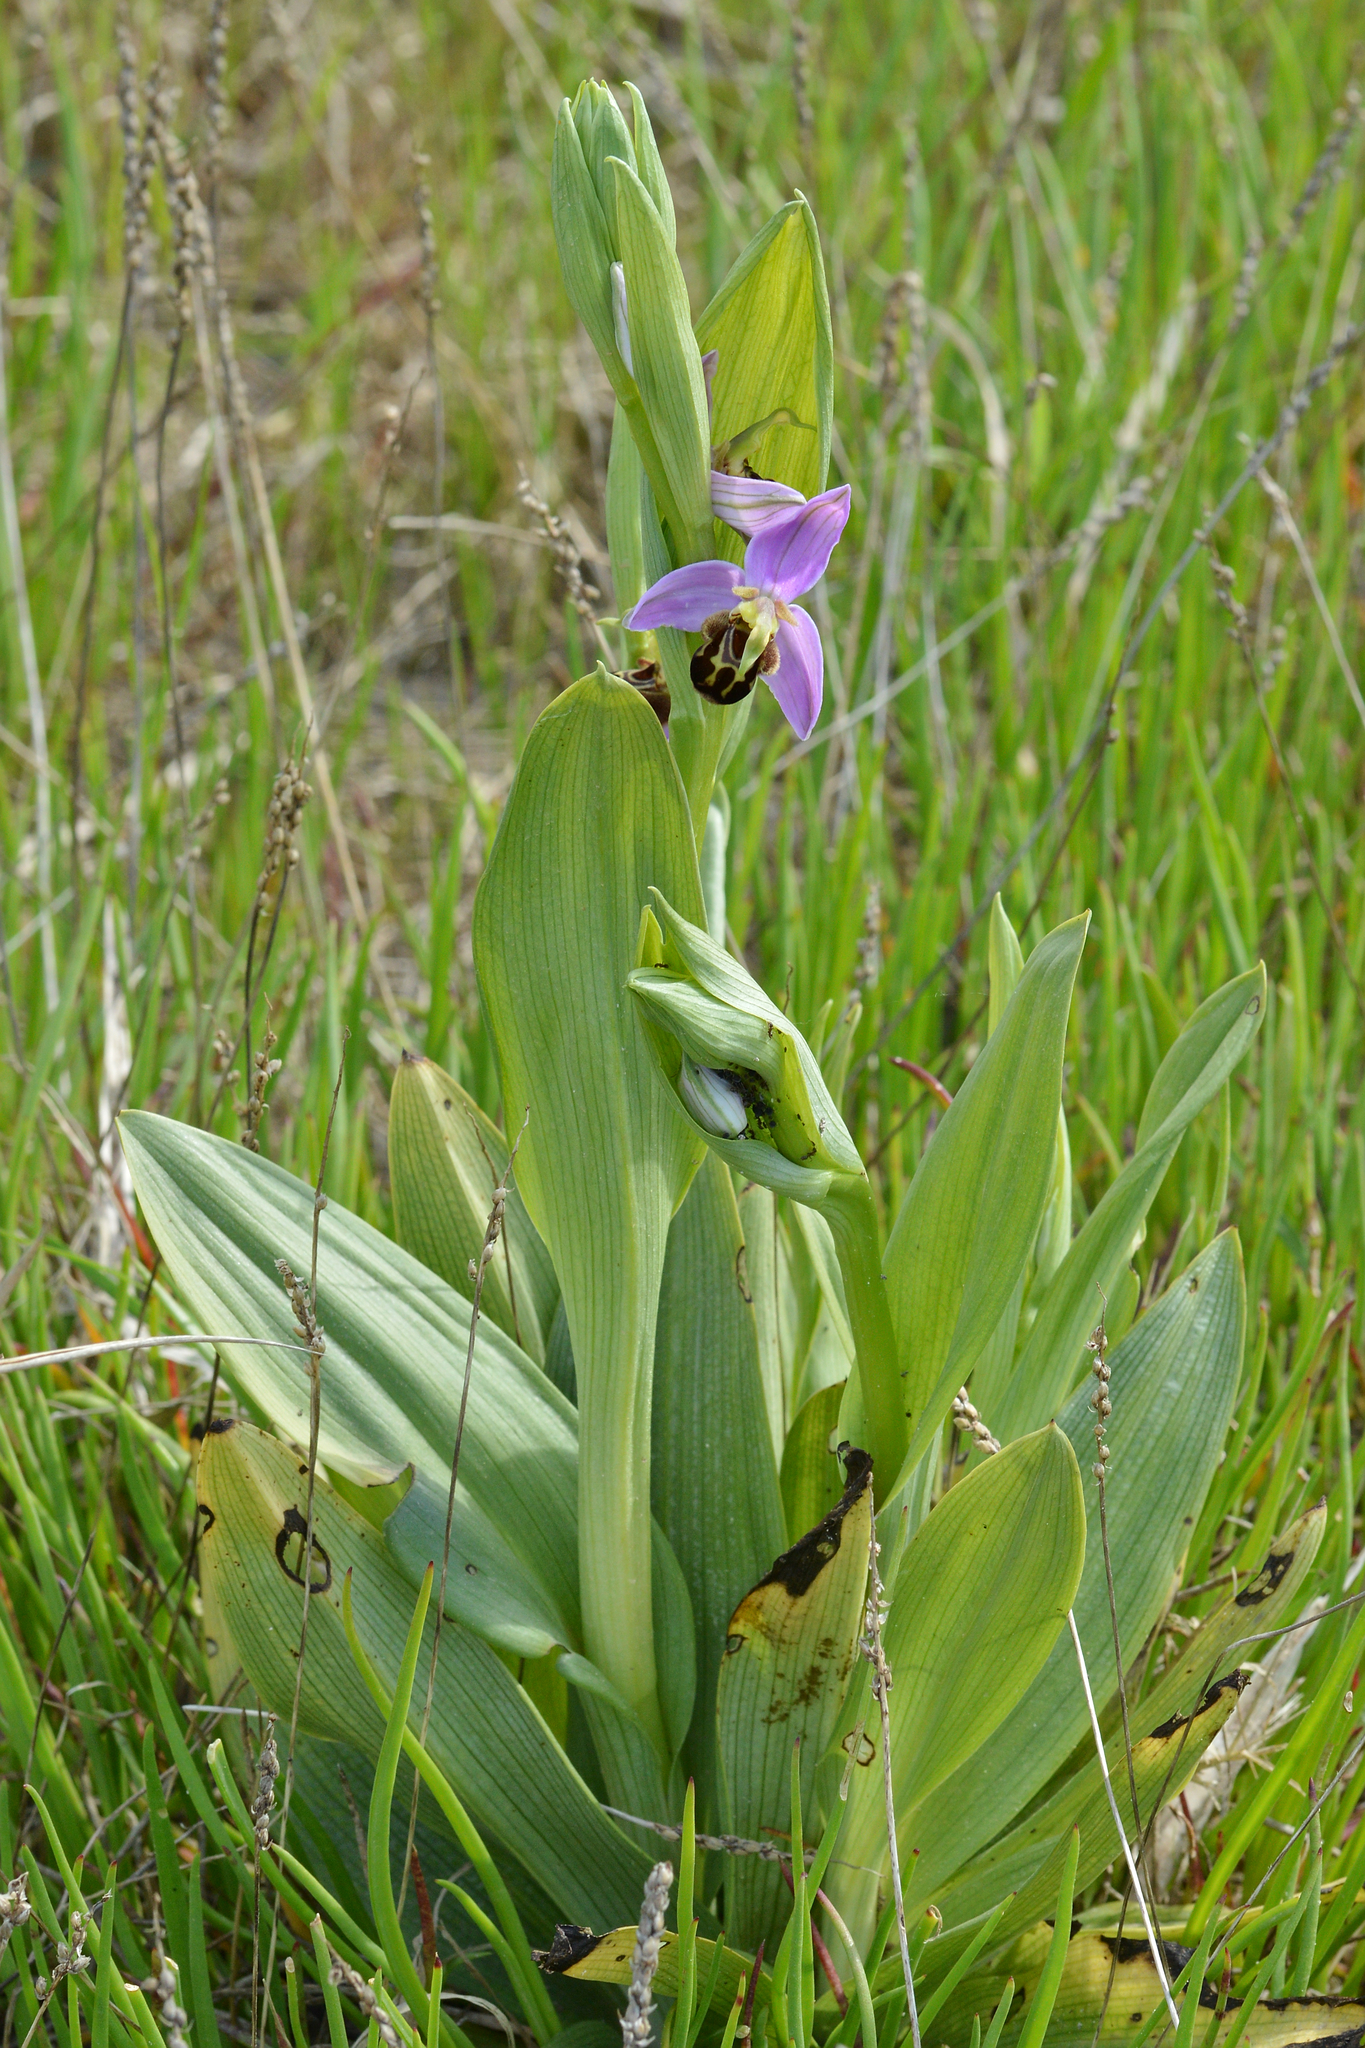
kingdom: Plantae
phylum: Tracheophyta
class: Liliopsida
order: Asparagales
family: Orchidaceae
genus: Ophrys
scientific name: Ophrys apifera
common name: Bee orchid
